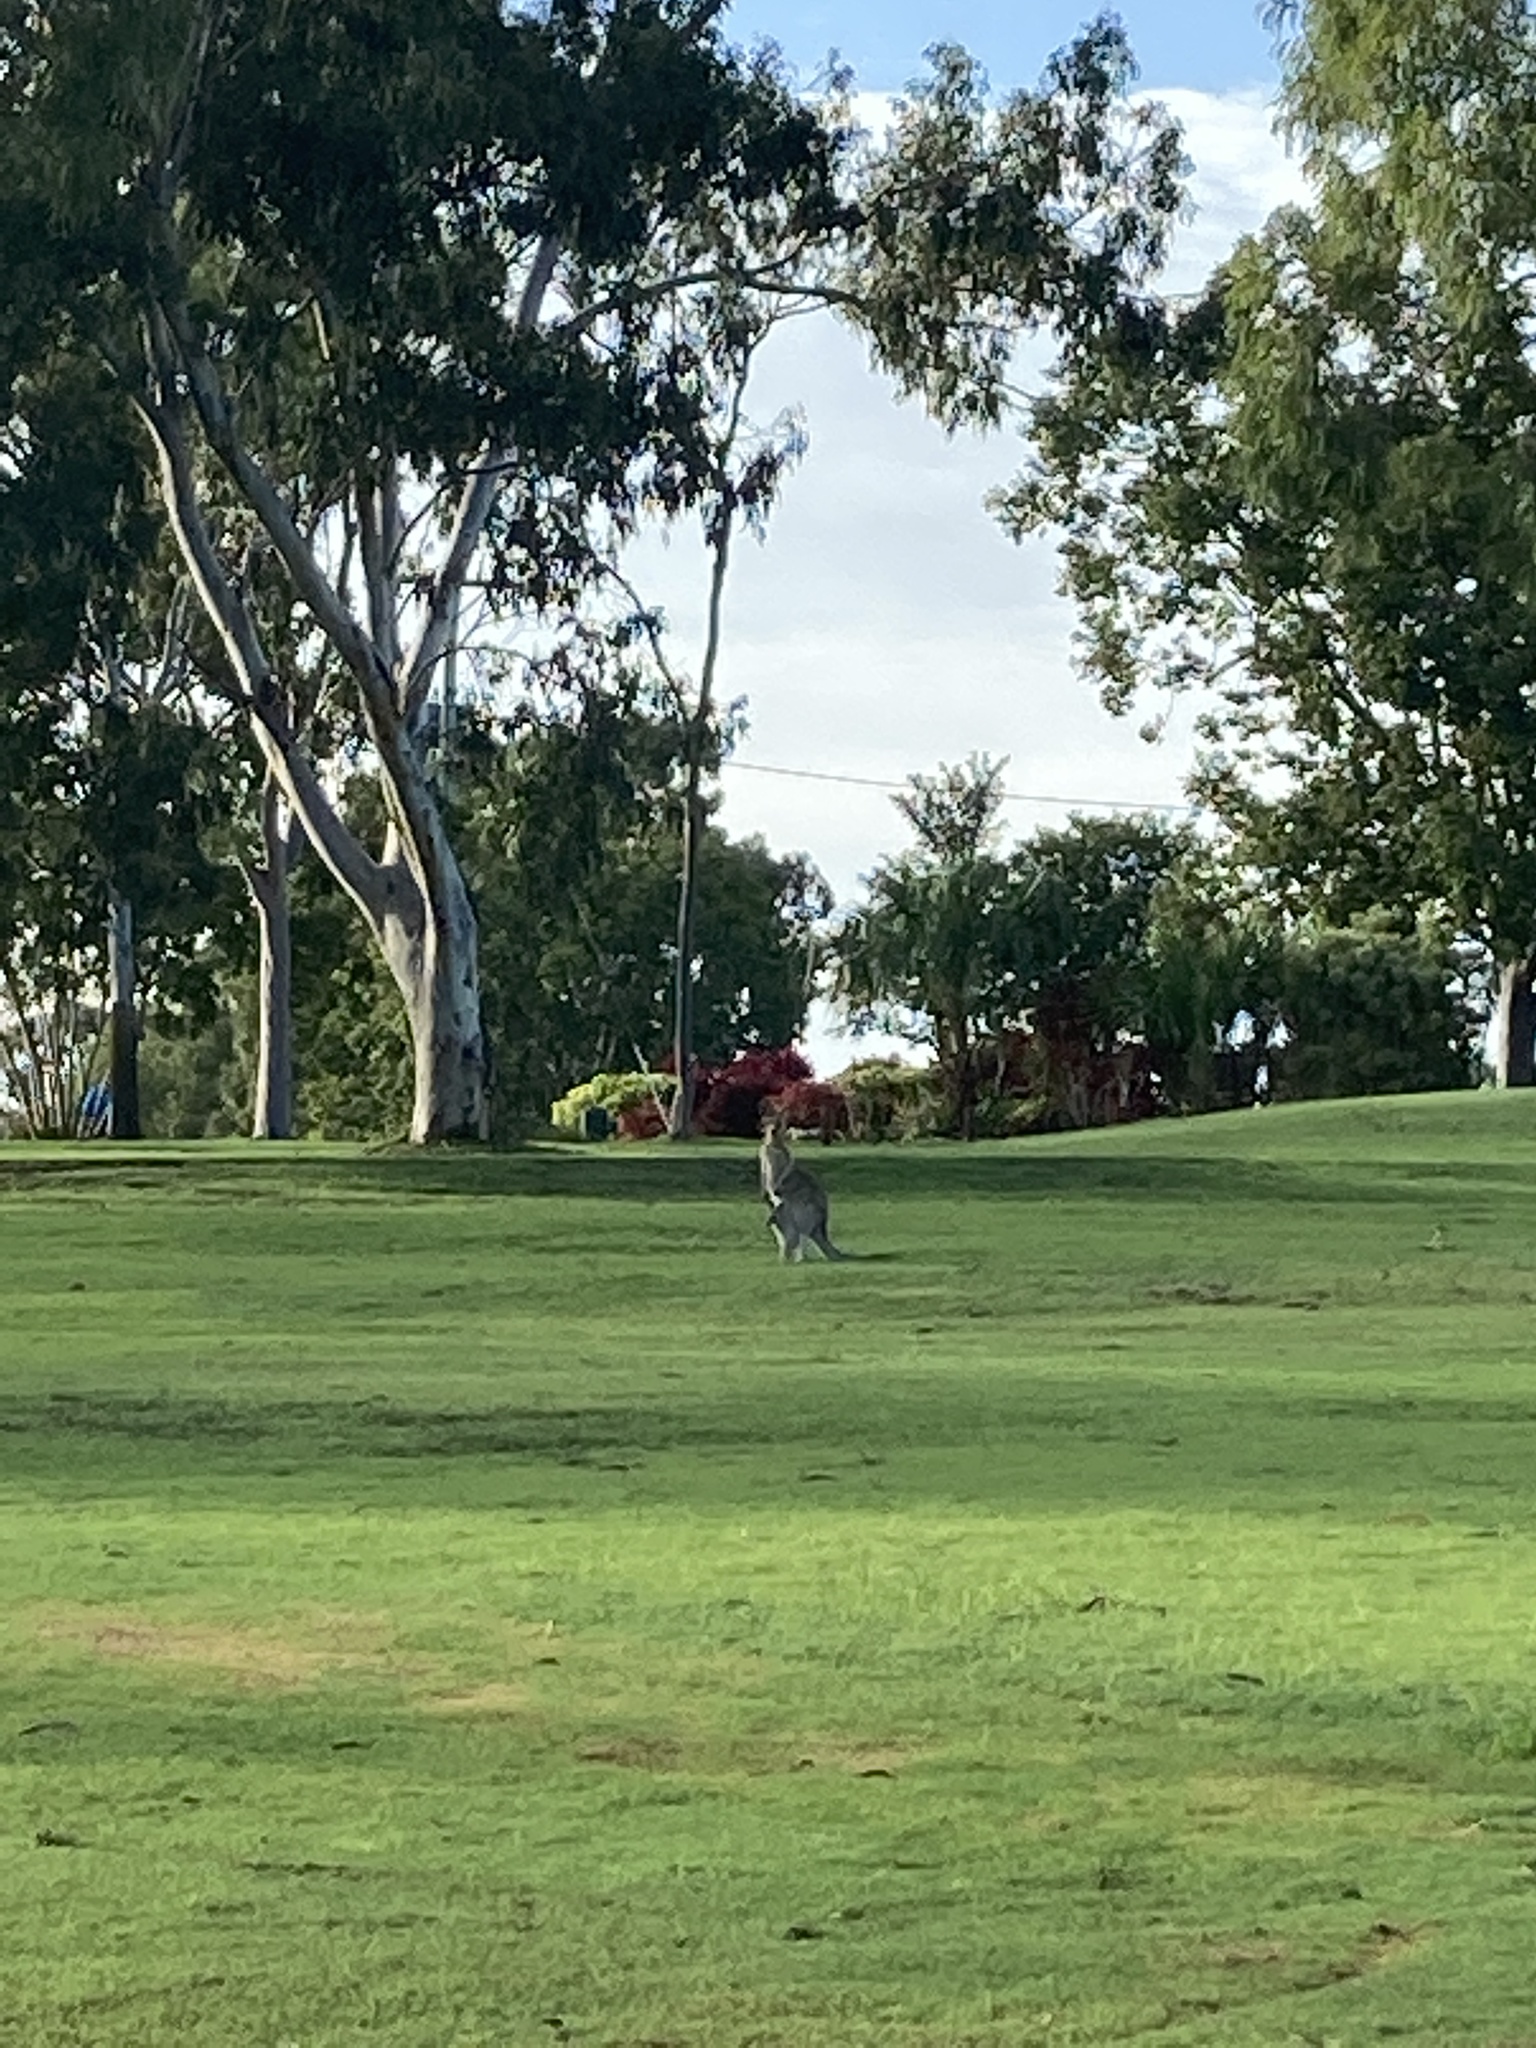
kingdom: Animalia
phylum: Chordata
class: Mammalia
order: Diprotodontia
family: Macropodidae
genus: Macropus
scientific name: Macropus giganteus
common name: Eastern grey kangaroo
